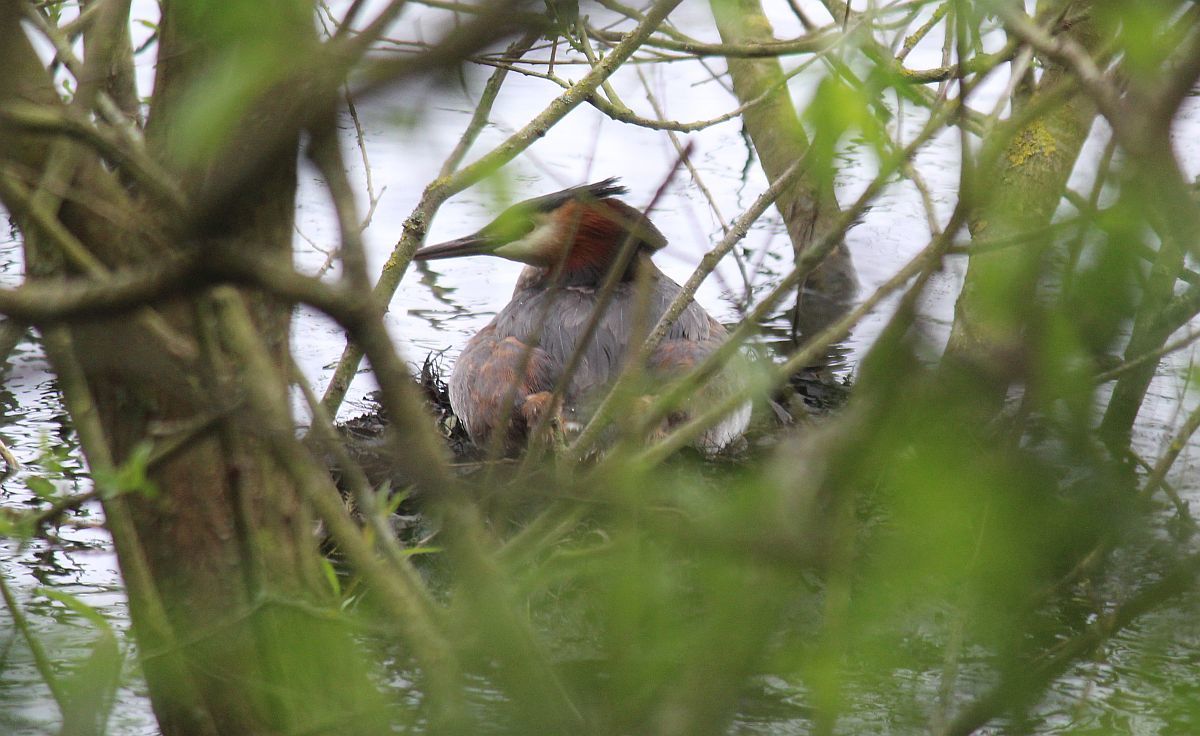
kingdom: Animalia
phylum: Chordata
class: Aves
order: Podicipediformes
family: Podicipedidae
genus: Podiceps
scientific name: Podiceps cristatus
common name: Great crested grebe
